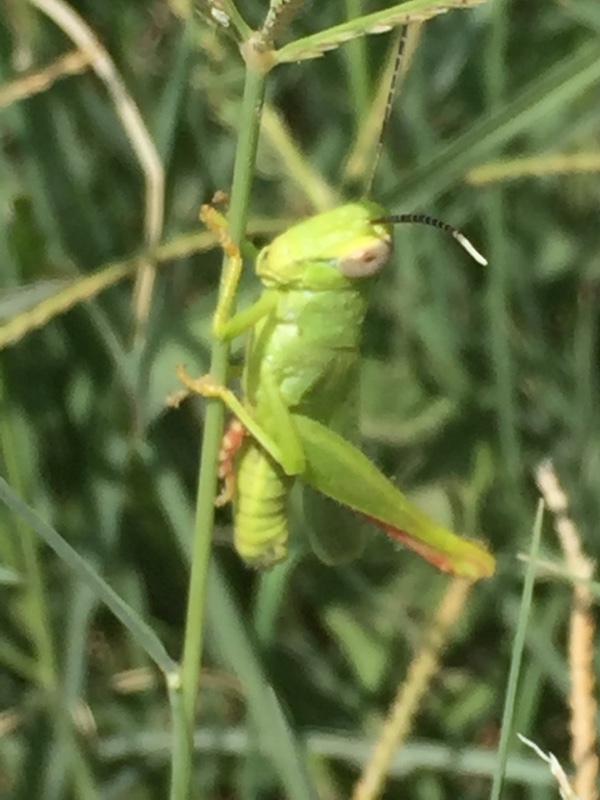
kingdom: Animalia
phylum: Arthropoda
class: Insecta
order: Orthoptera
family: Acrididae
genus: Heteracris
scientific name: Heteracris pterosticha
